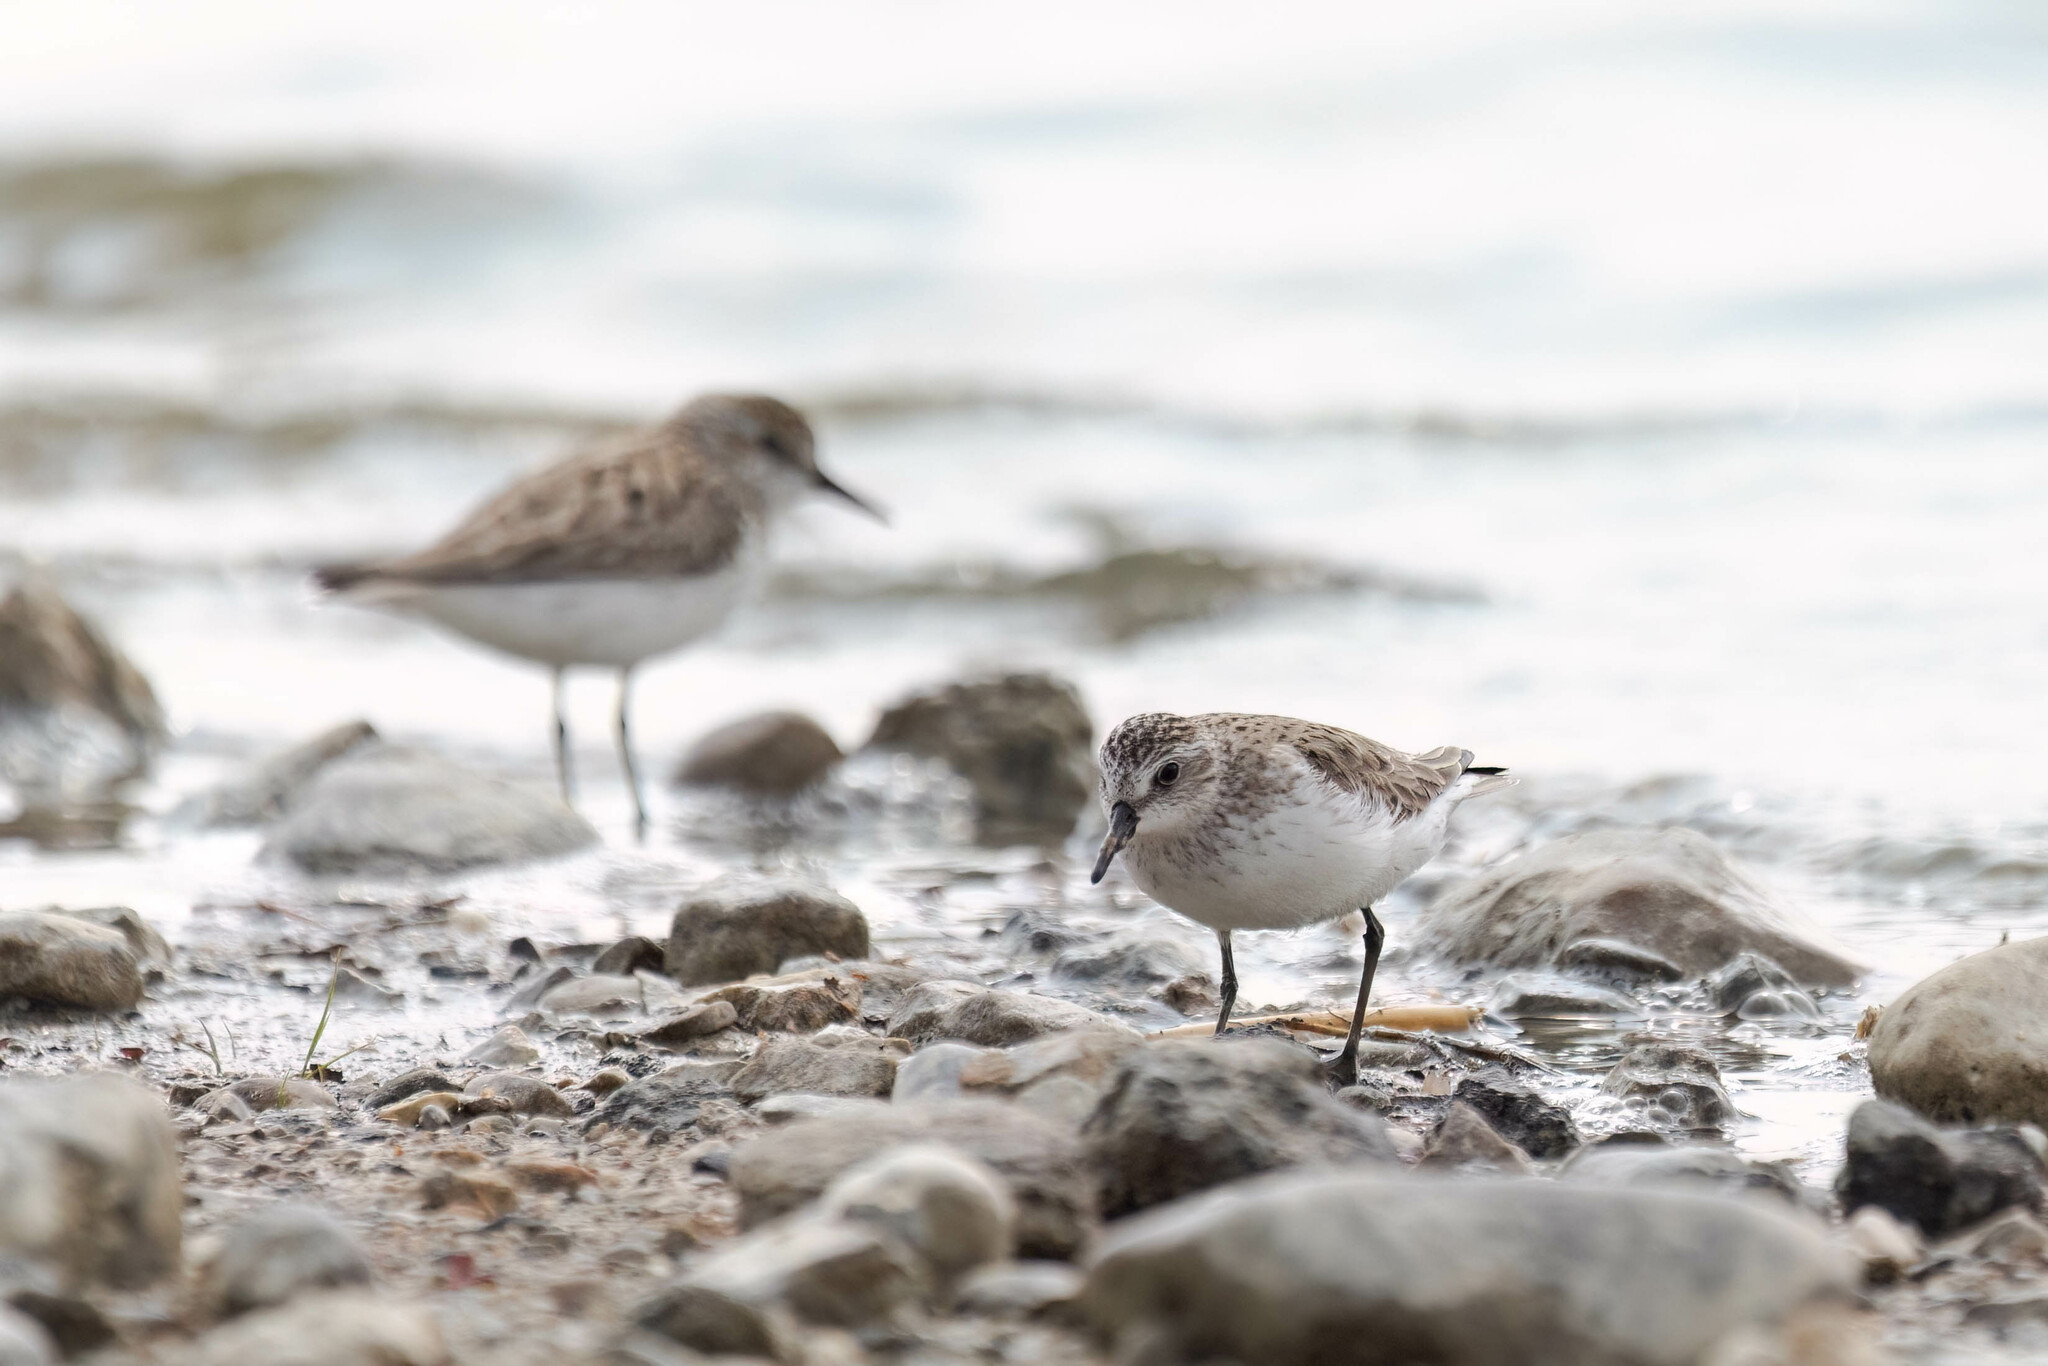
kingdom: Animalia
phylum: Chordata
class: Aves
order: Charadriiformes
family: Scolopacidae
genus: Calidris
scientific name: Calidris pusilla
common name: Semipalmated sandpiper
